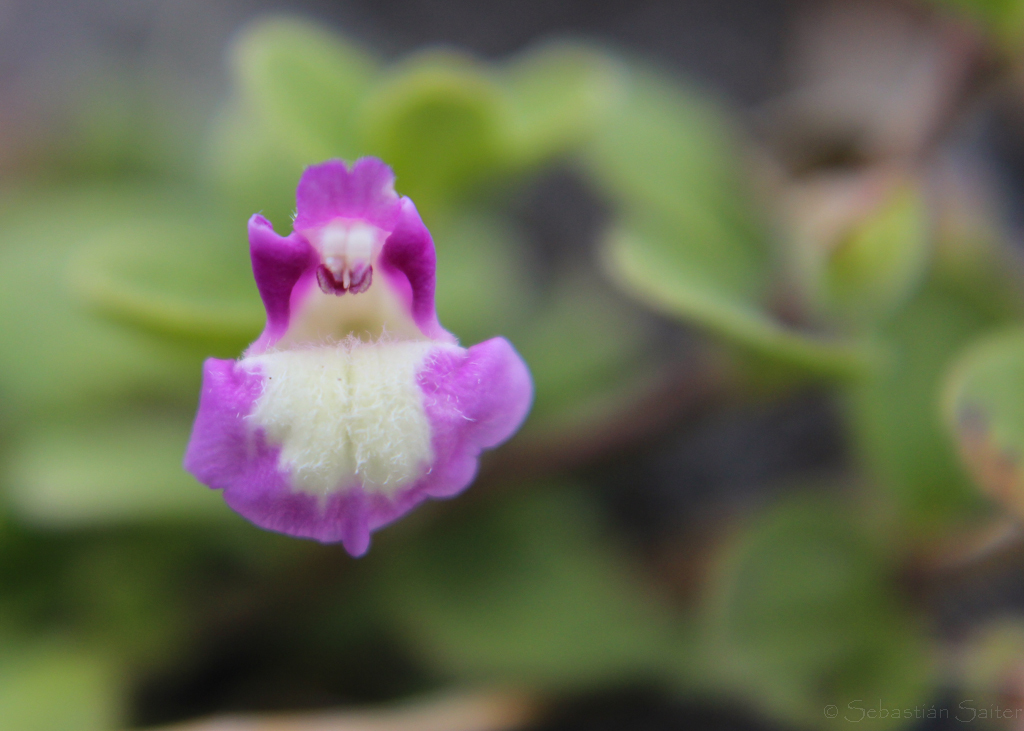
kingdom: Plantae
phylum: Tracheophyta
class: Magnoliopsida
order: Lamiales
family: Lamiaceae
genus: Scutellaria
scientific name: Scutellaria nummulariifolia
